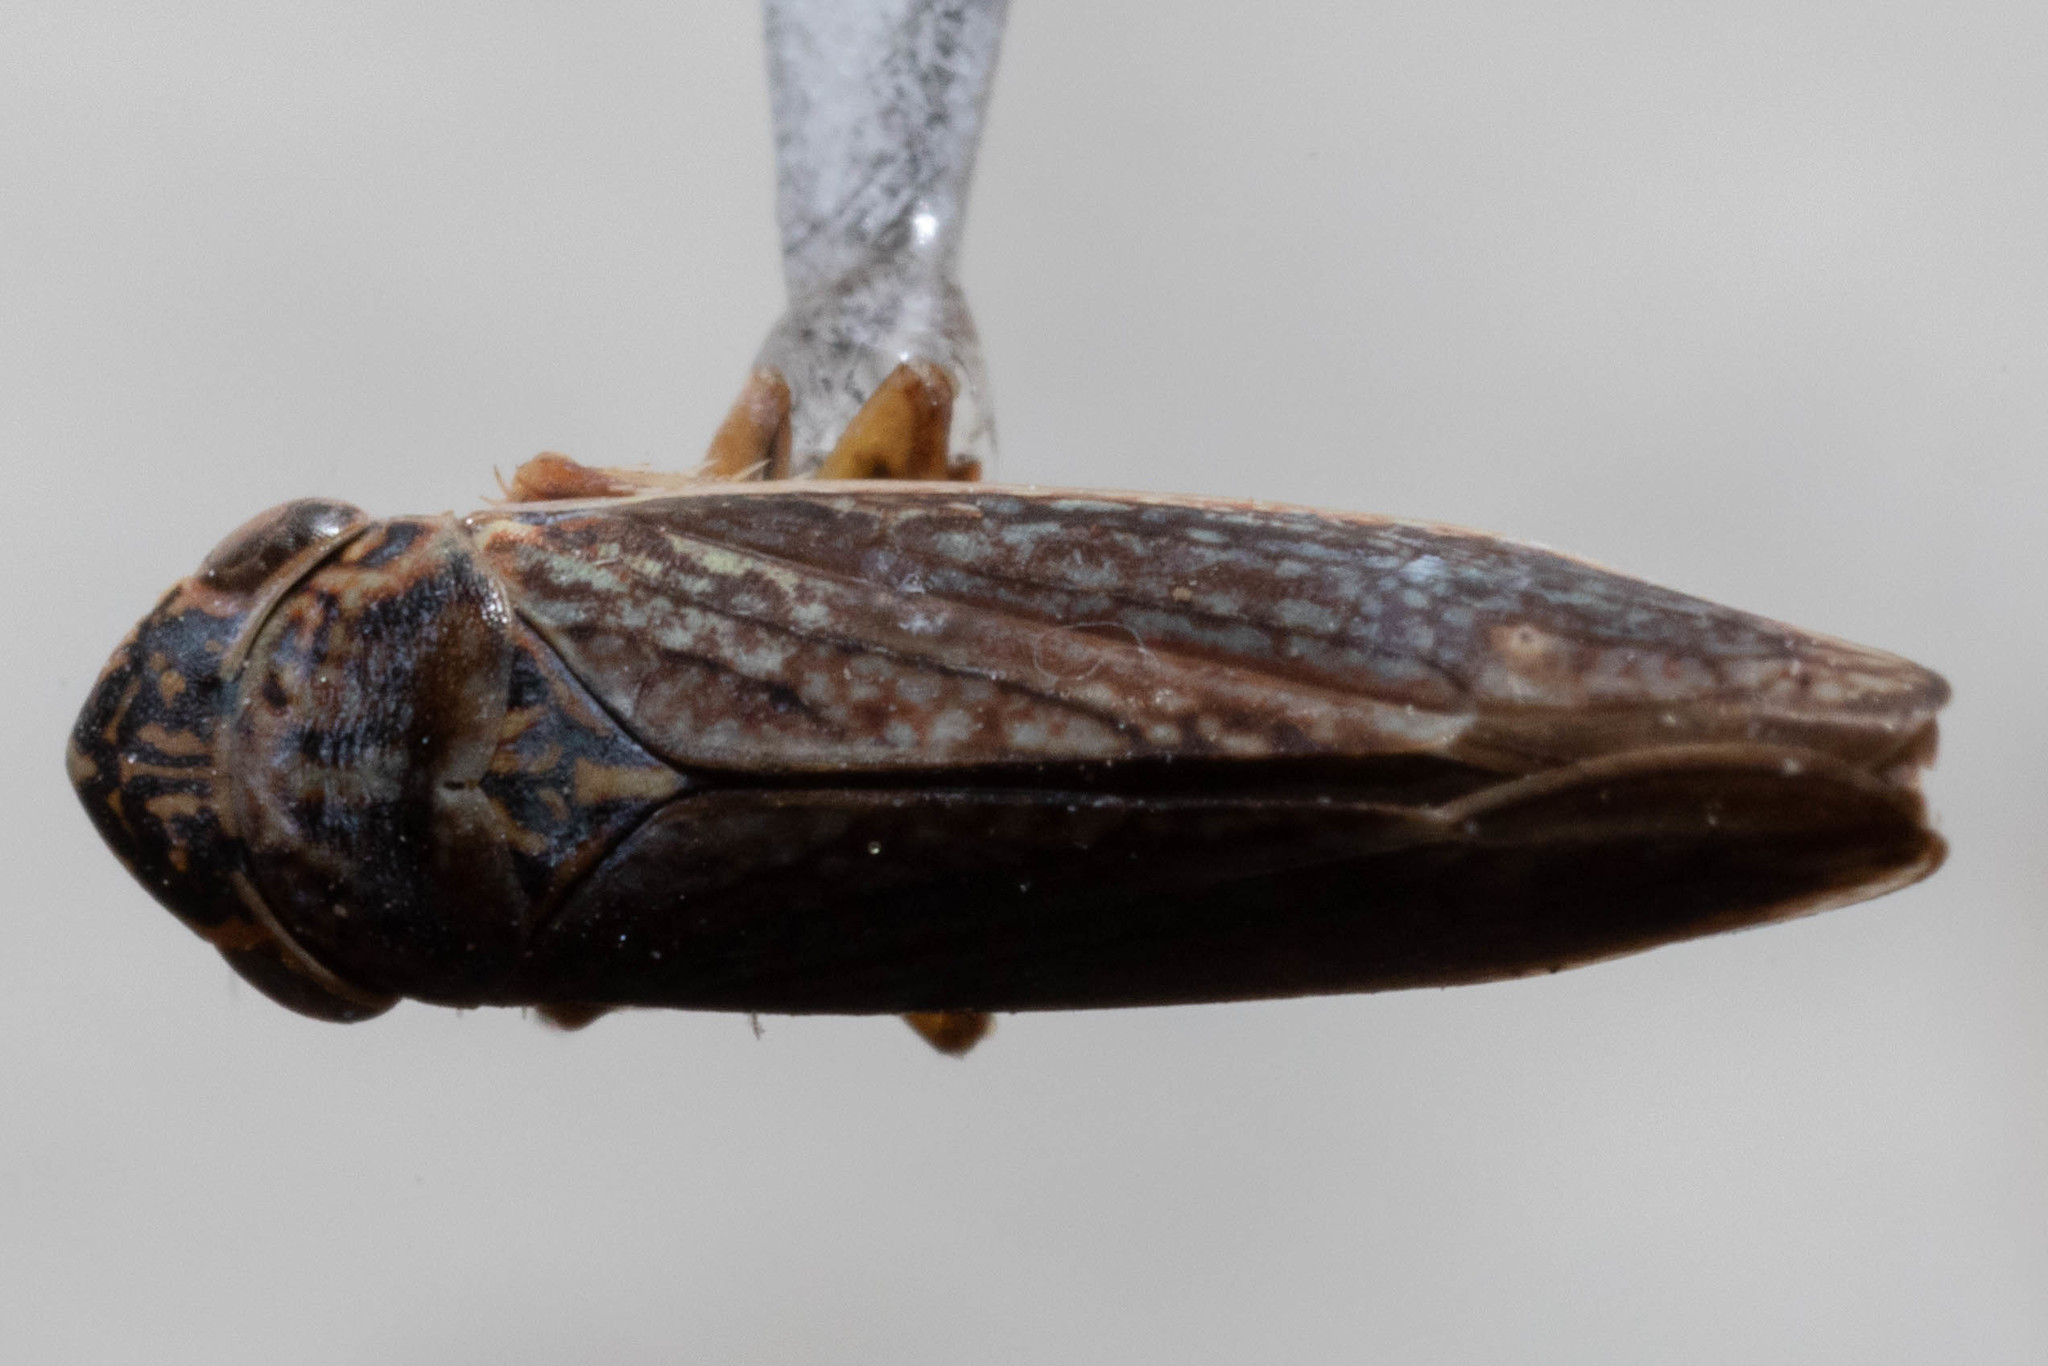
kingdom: Animalia
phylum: Arthropoda
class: Insecta
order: Hemiptera
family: Cicadellidae
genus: Graphocephala
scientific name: Graphocephala confluens
